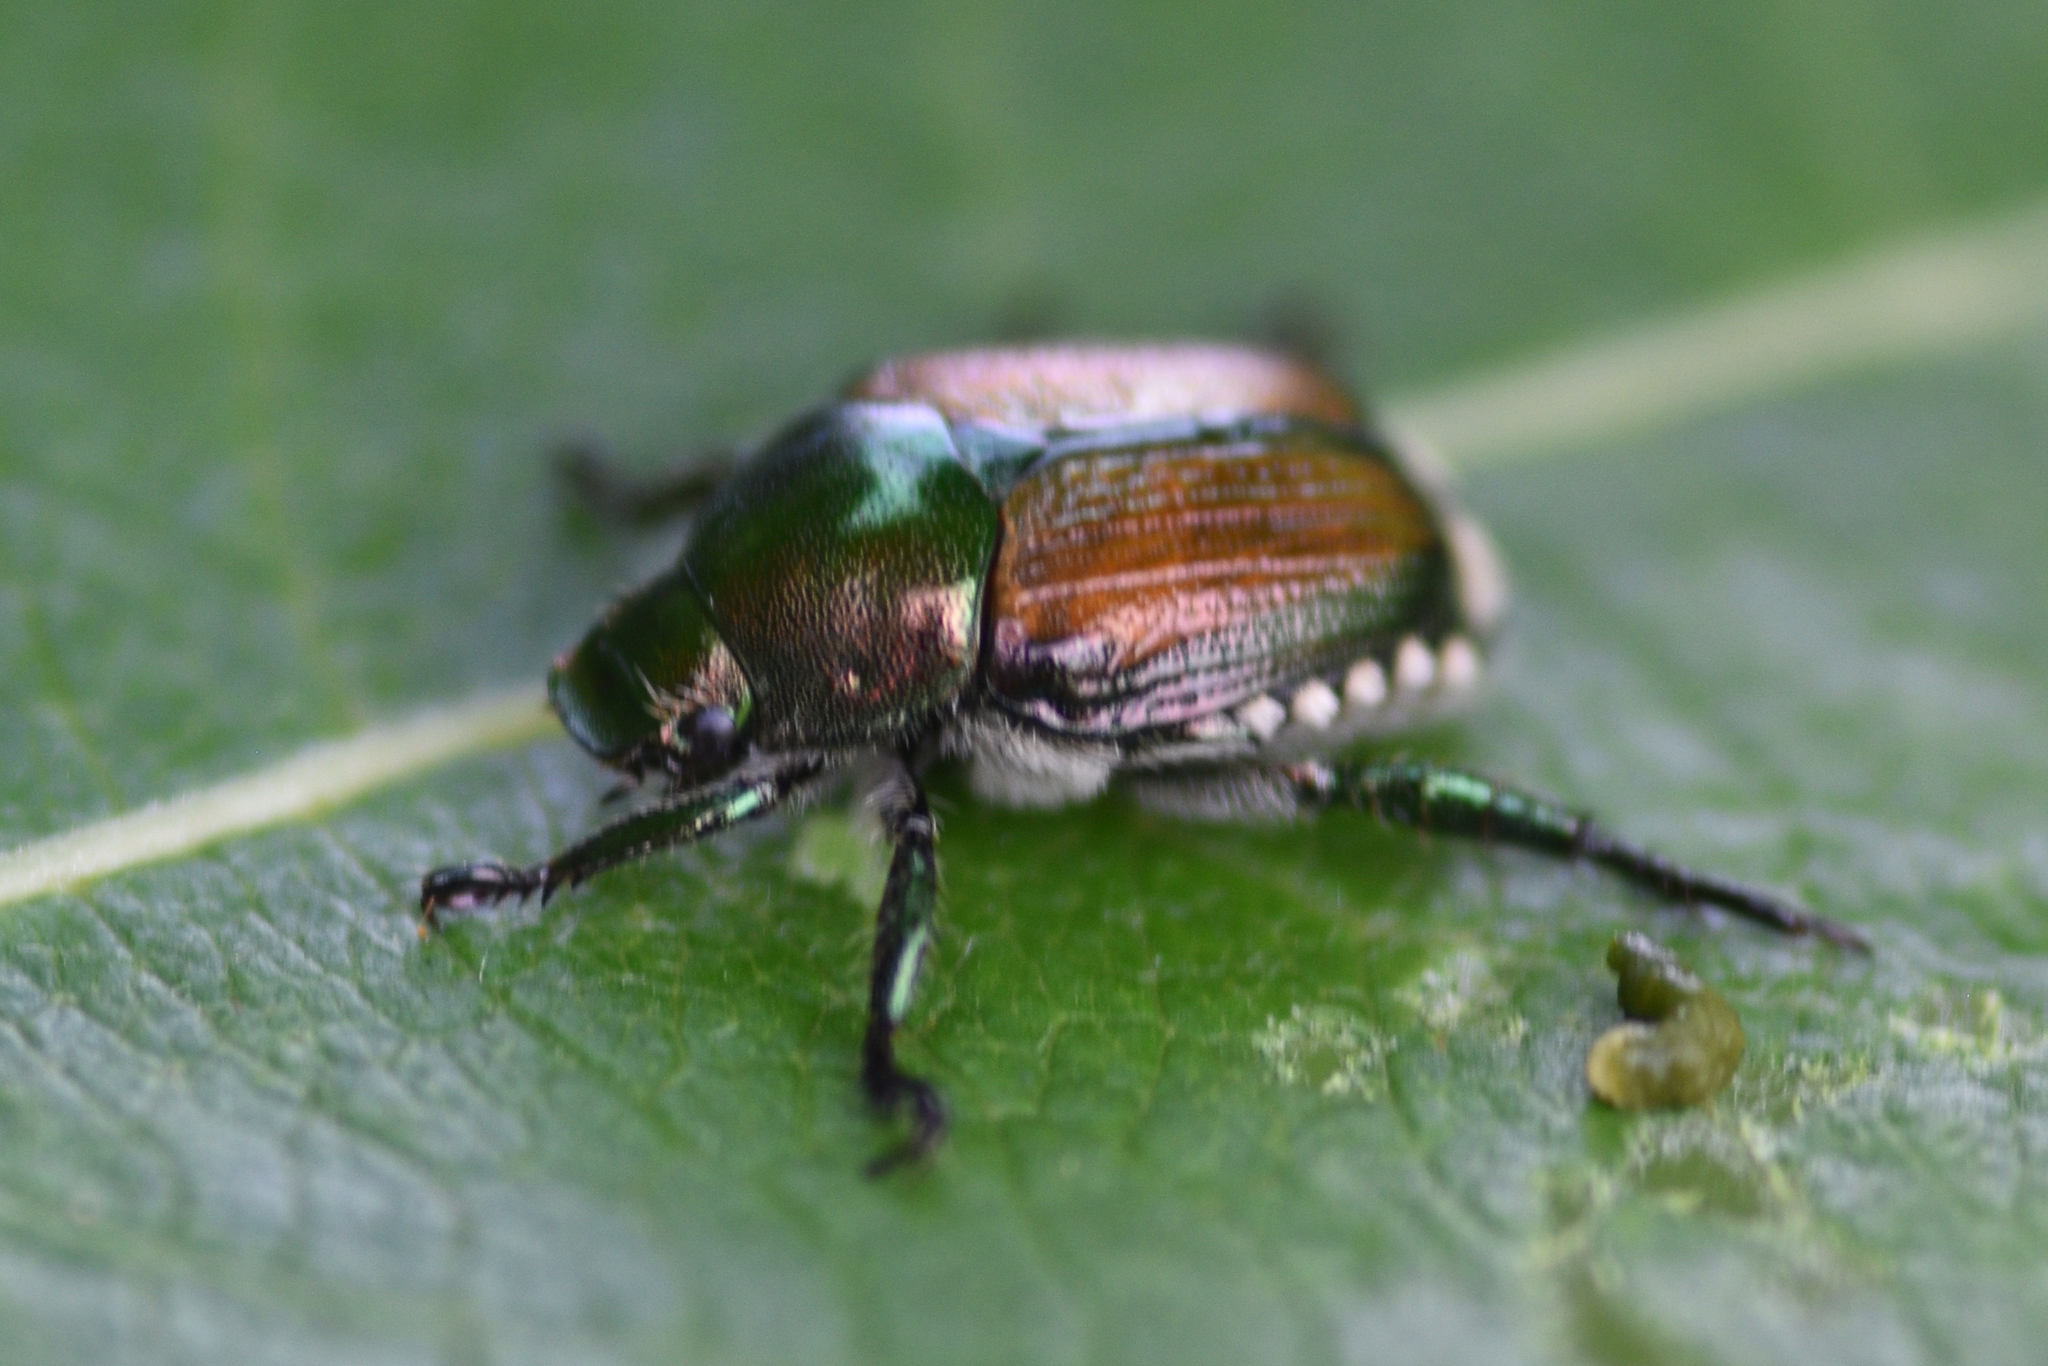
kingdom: Animalia
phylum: Arthropoda
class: Insecta
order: Coleoptera
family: Scarabaeidae
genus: Popillia
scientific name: Popillia japonica
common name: Japanese beetle
